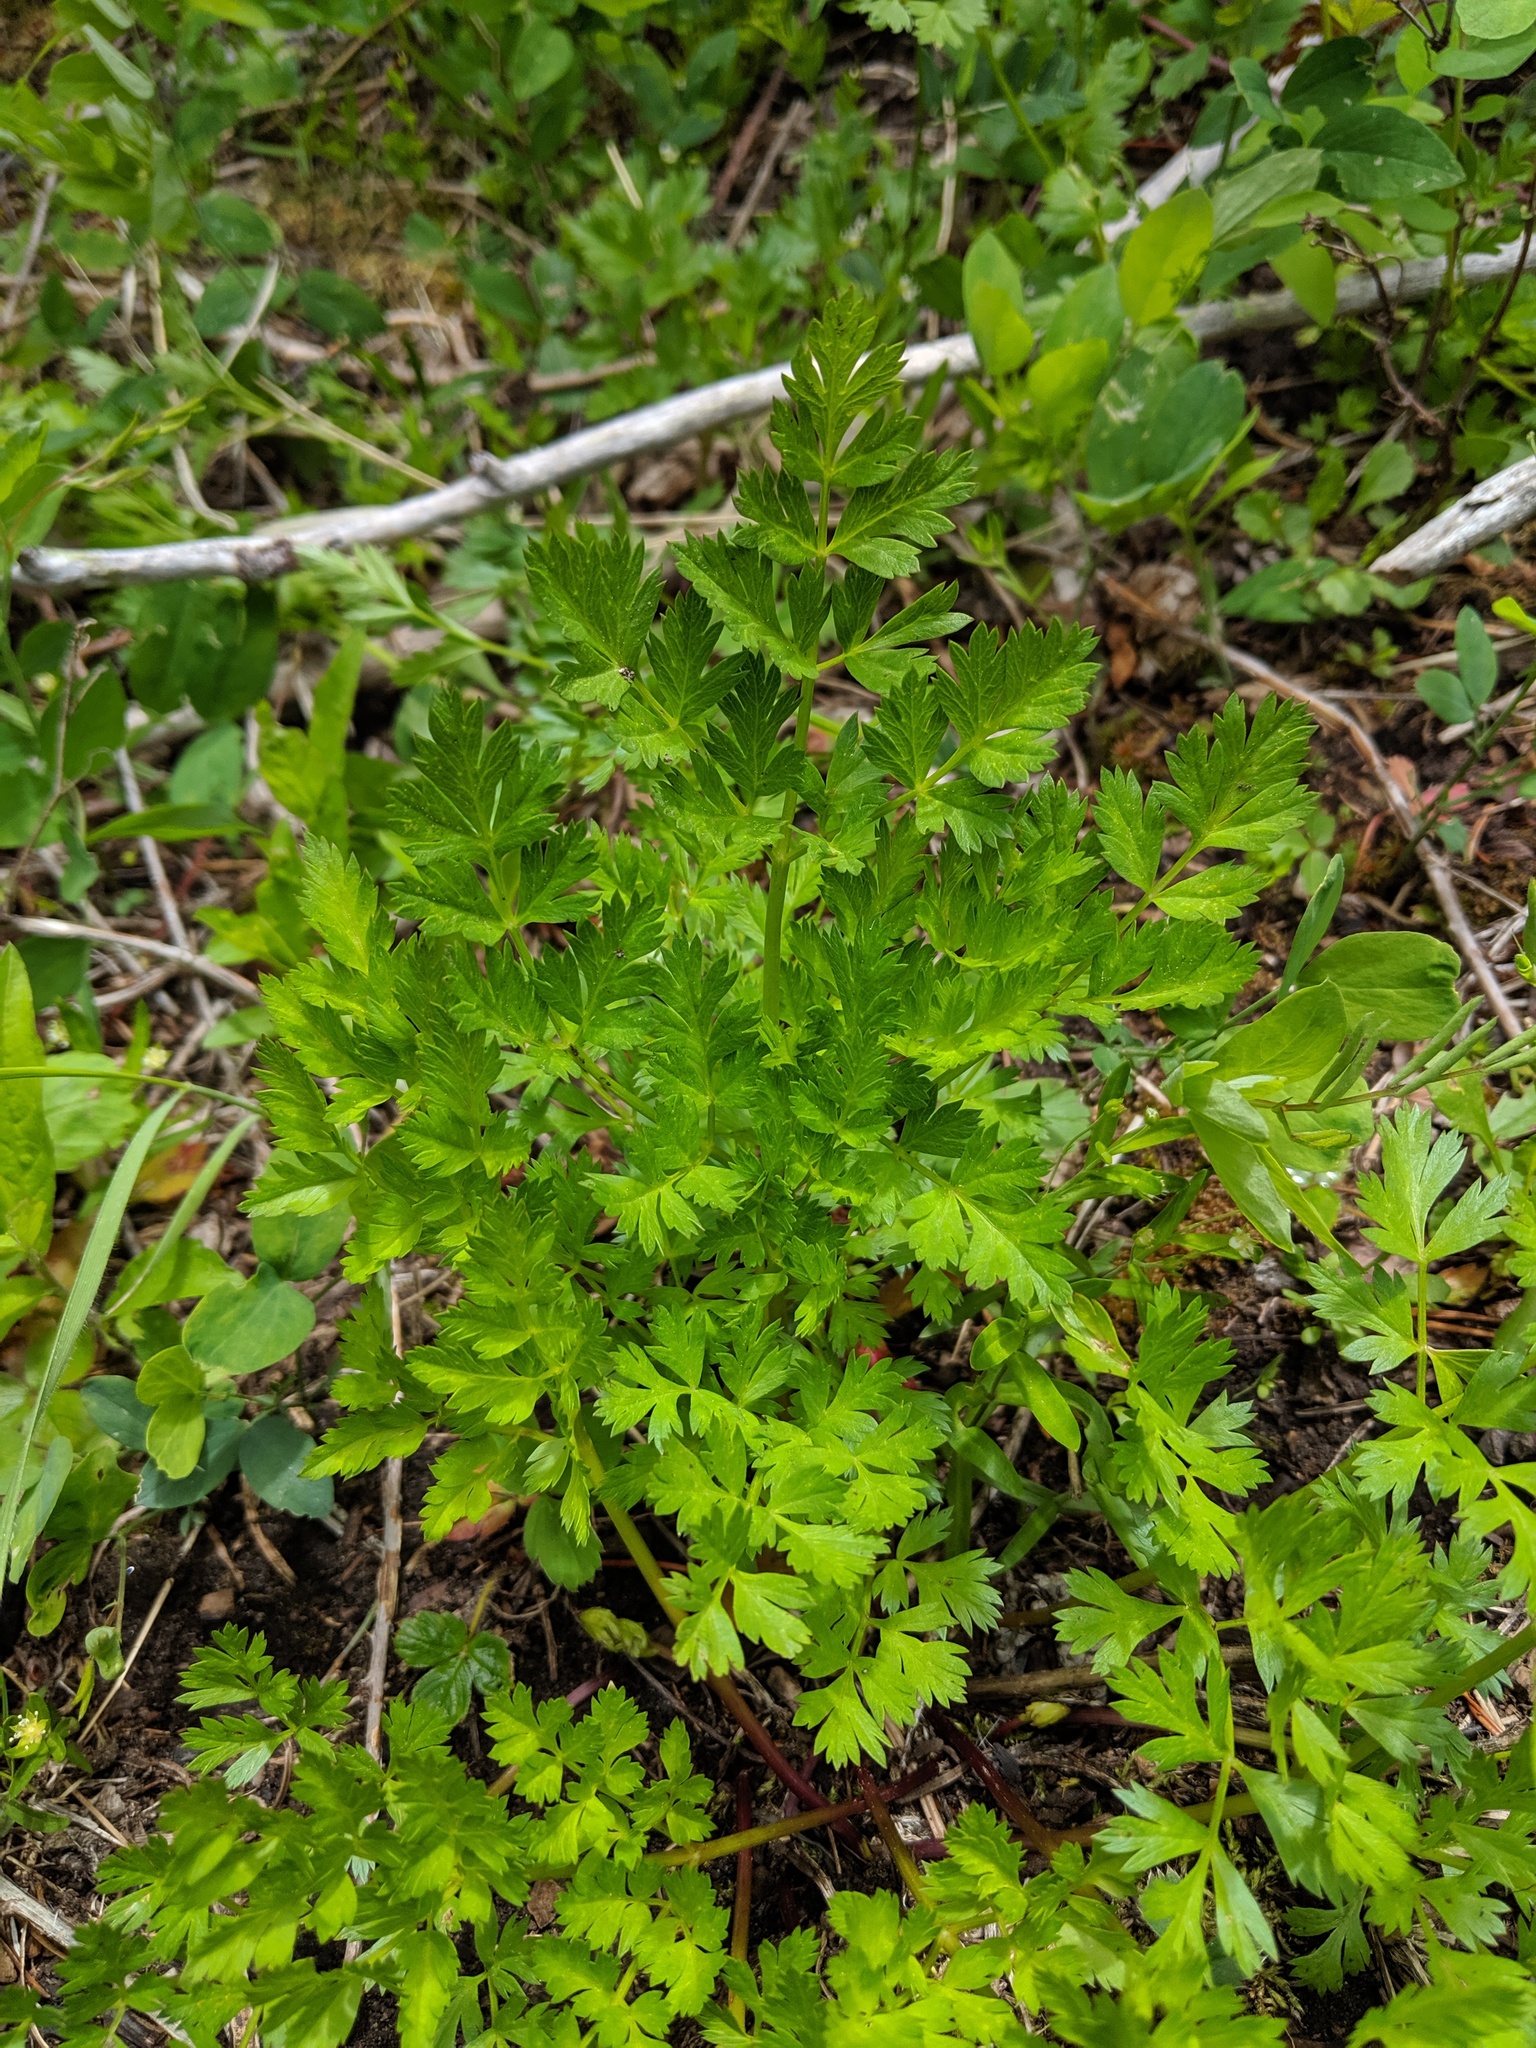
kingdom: Plantae
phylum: Tracheophyta
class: Magnoliopsida
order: Apiales
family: Apiaceae
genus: Ligusticum
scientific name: Ligusticum grayi
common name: Gray's licorice-root
